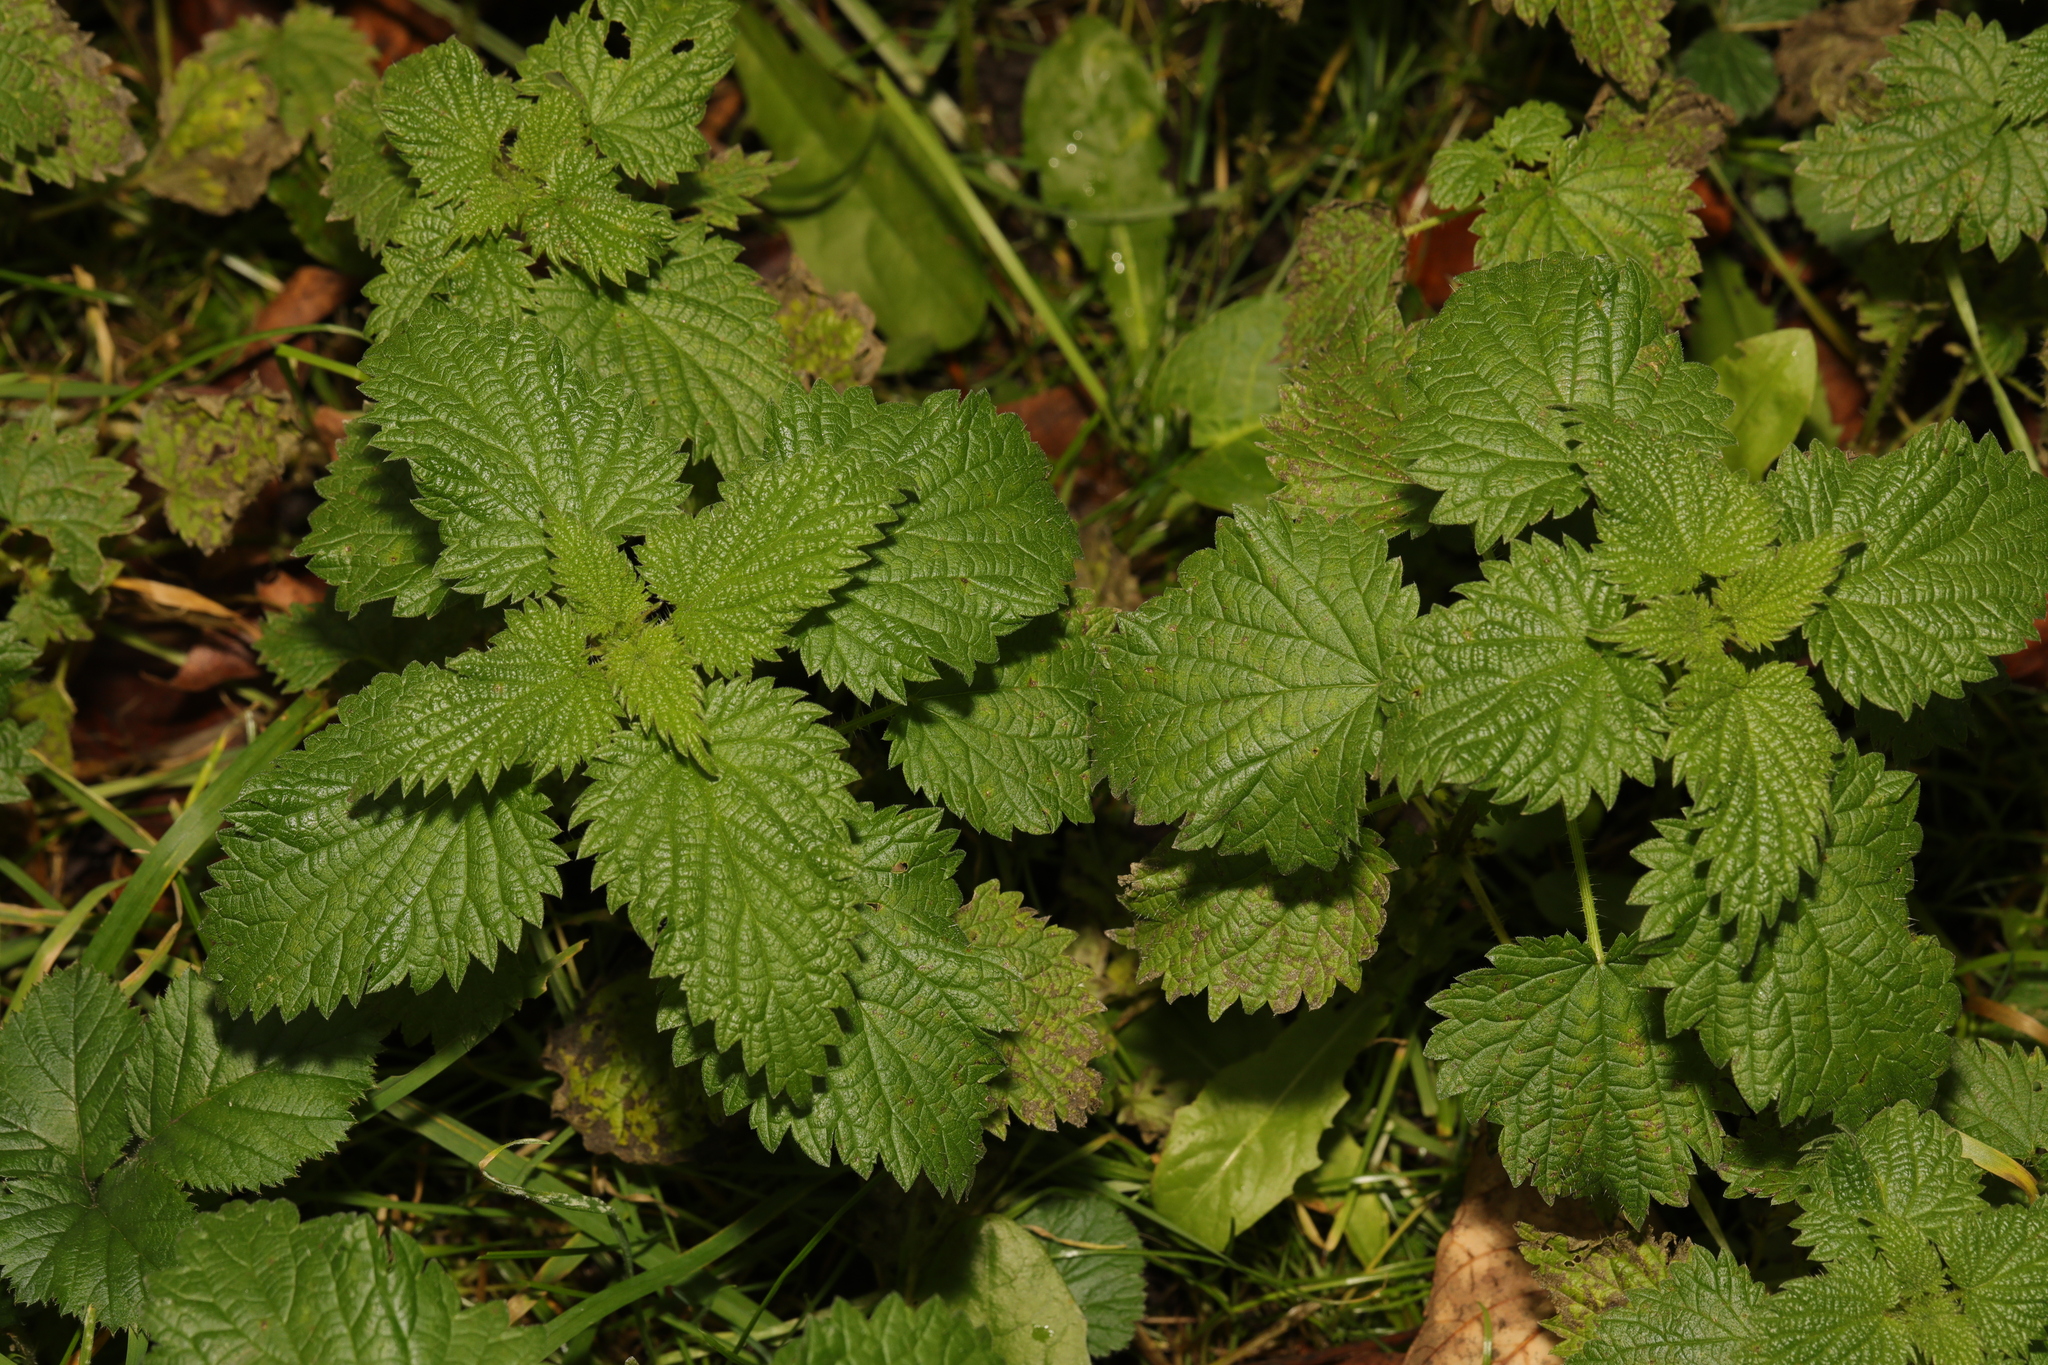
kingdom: Plantae
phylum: Tracheophyta
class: Magnoliopsida
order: Rosales
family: Urticaceae
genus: Urtica
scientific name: Urtica dioica
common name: Common nettle
